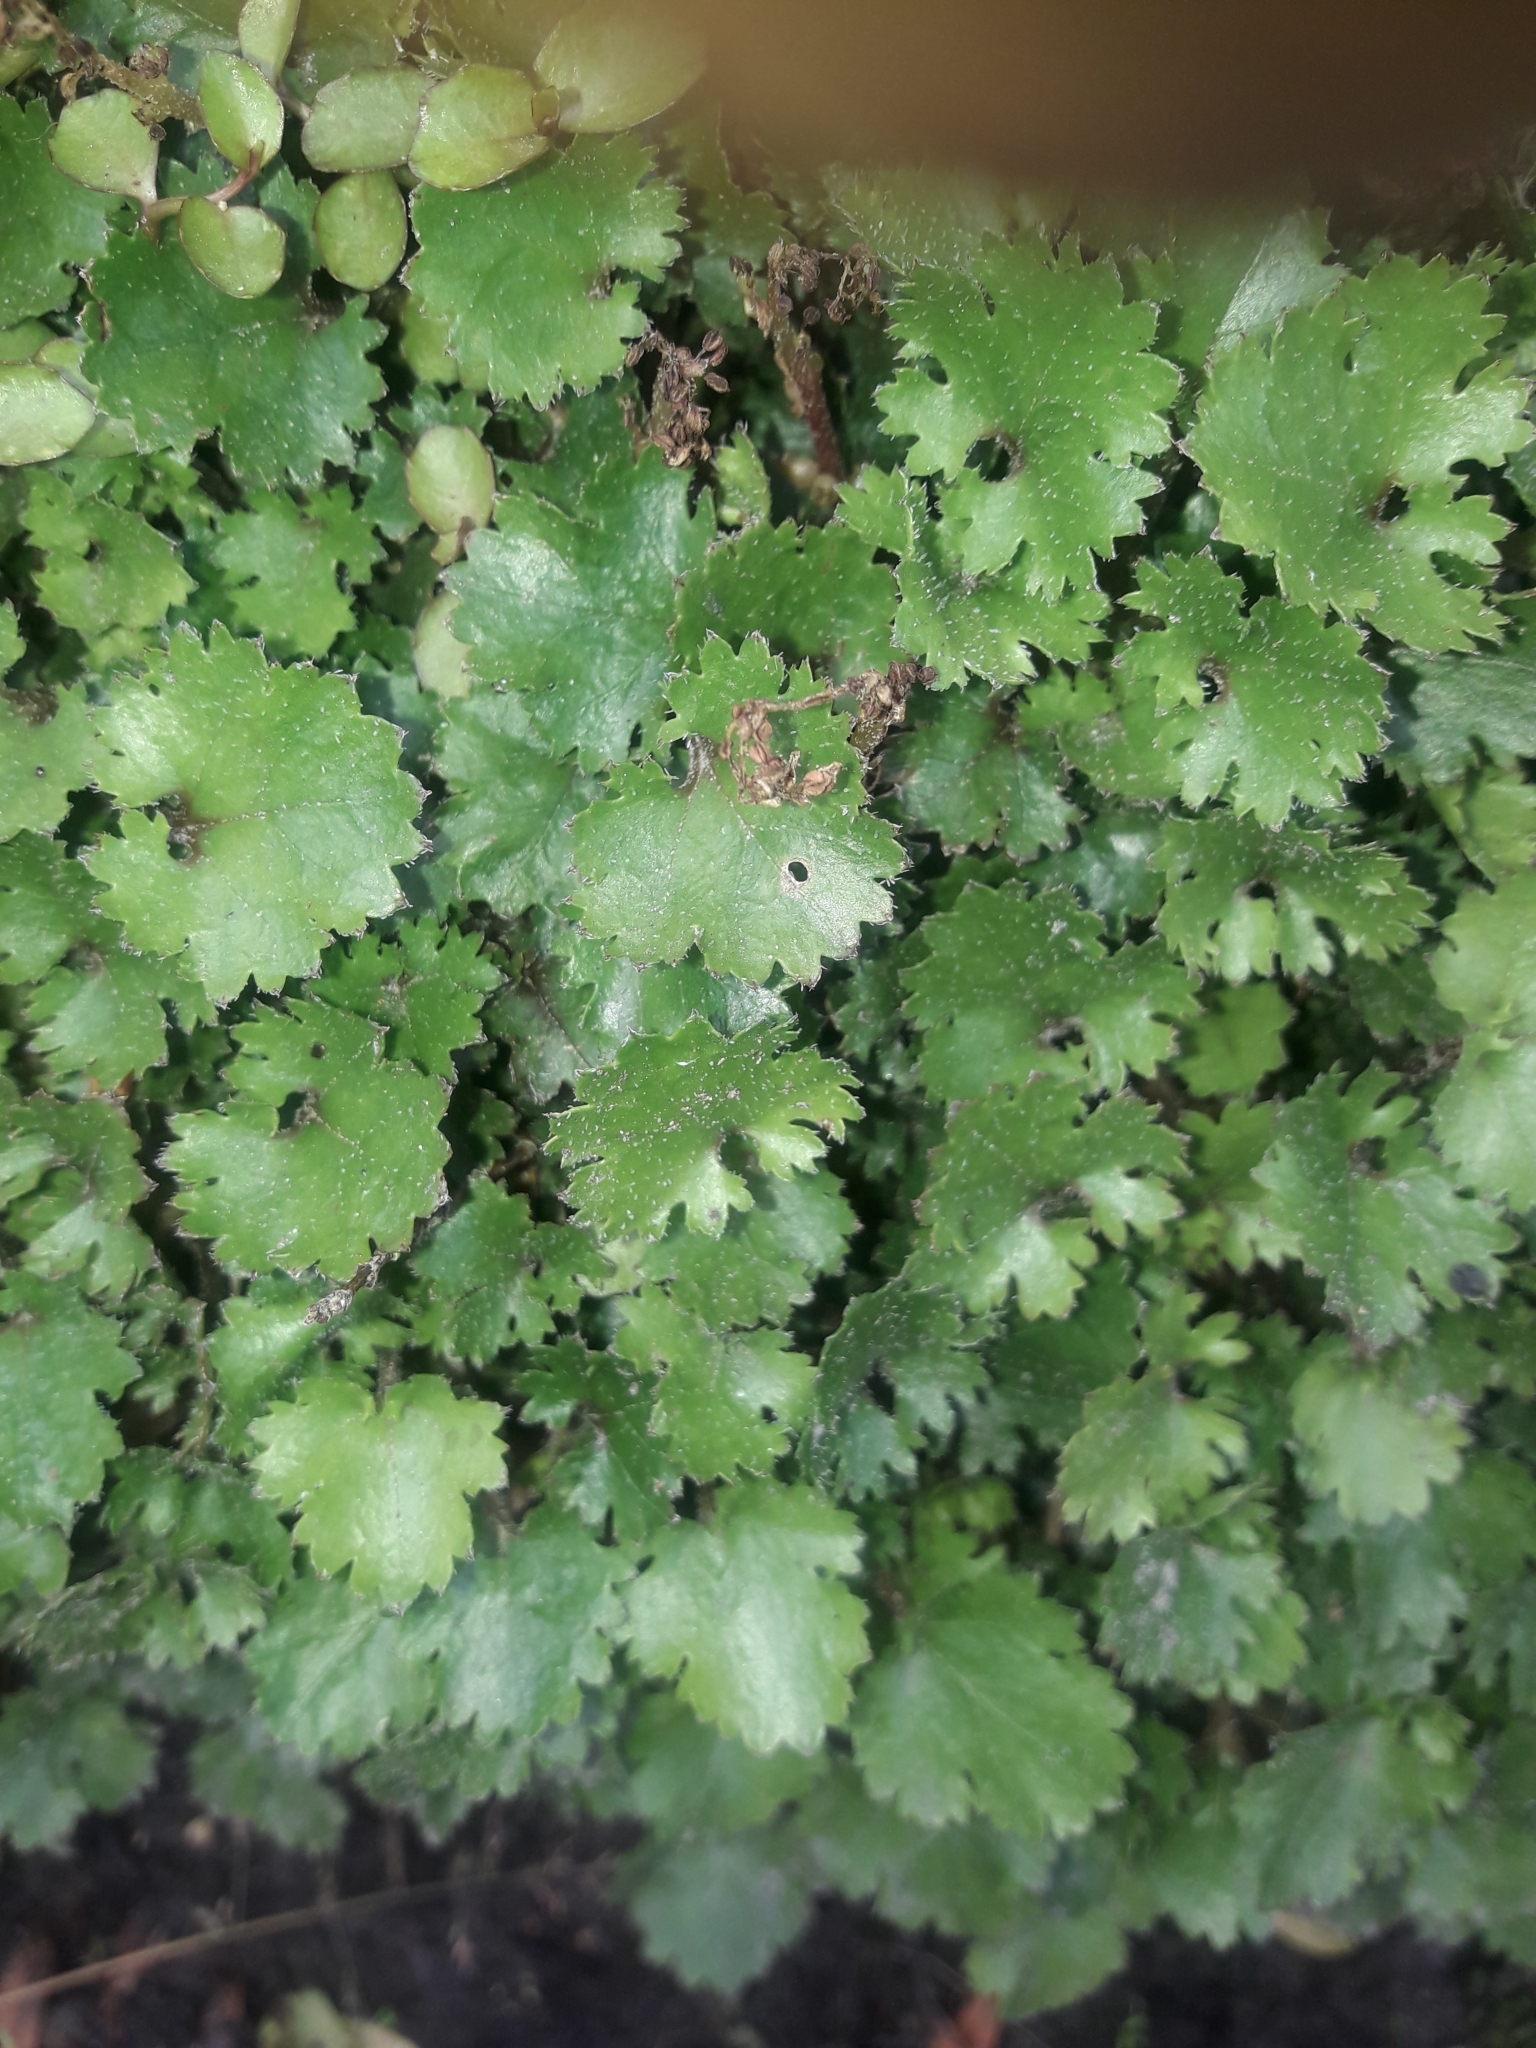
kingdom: Plantae
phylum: Tracheophyta
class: Magnoliopsida
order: Gunnerales
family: Gunneraceae
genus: Gunnera
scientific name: Gunnera monoica
